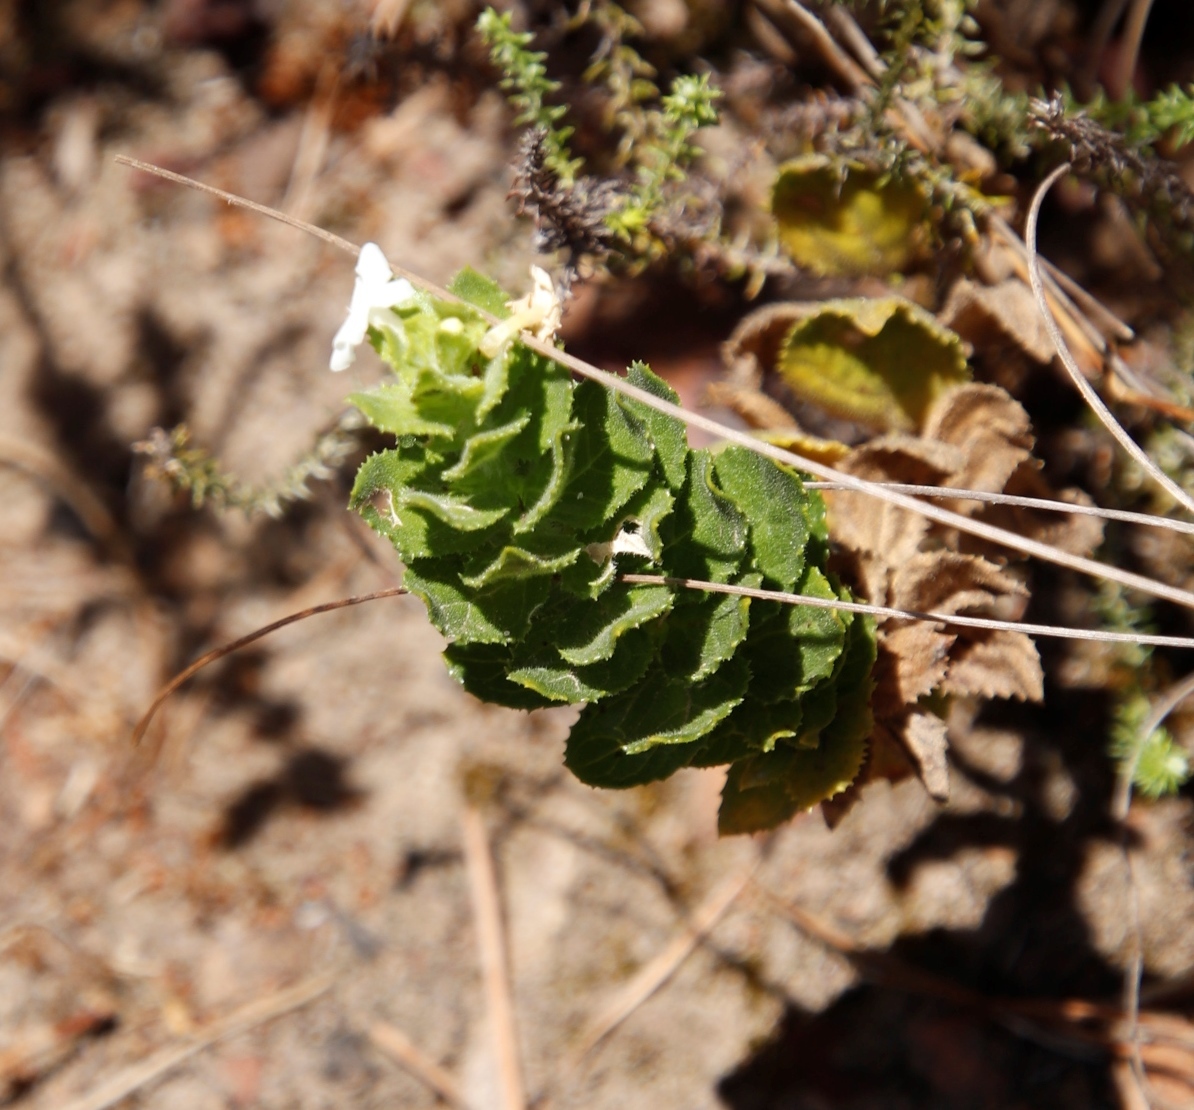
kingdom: Plantae
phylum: Tracheophyta
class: Magnoliopsida
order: Lamiales
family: Scrophulariaceae
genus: Oftia
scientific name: Oftia africana
